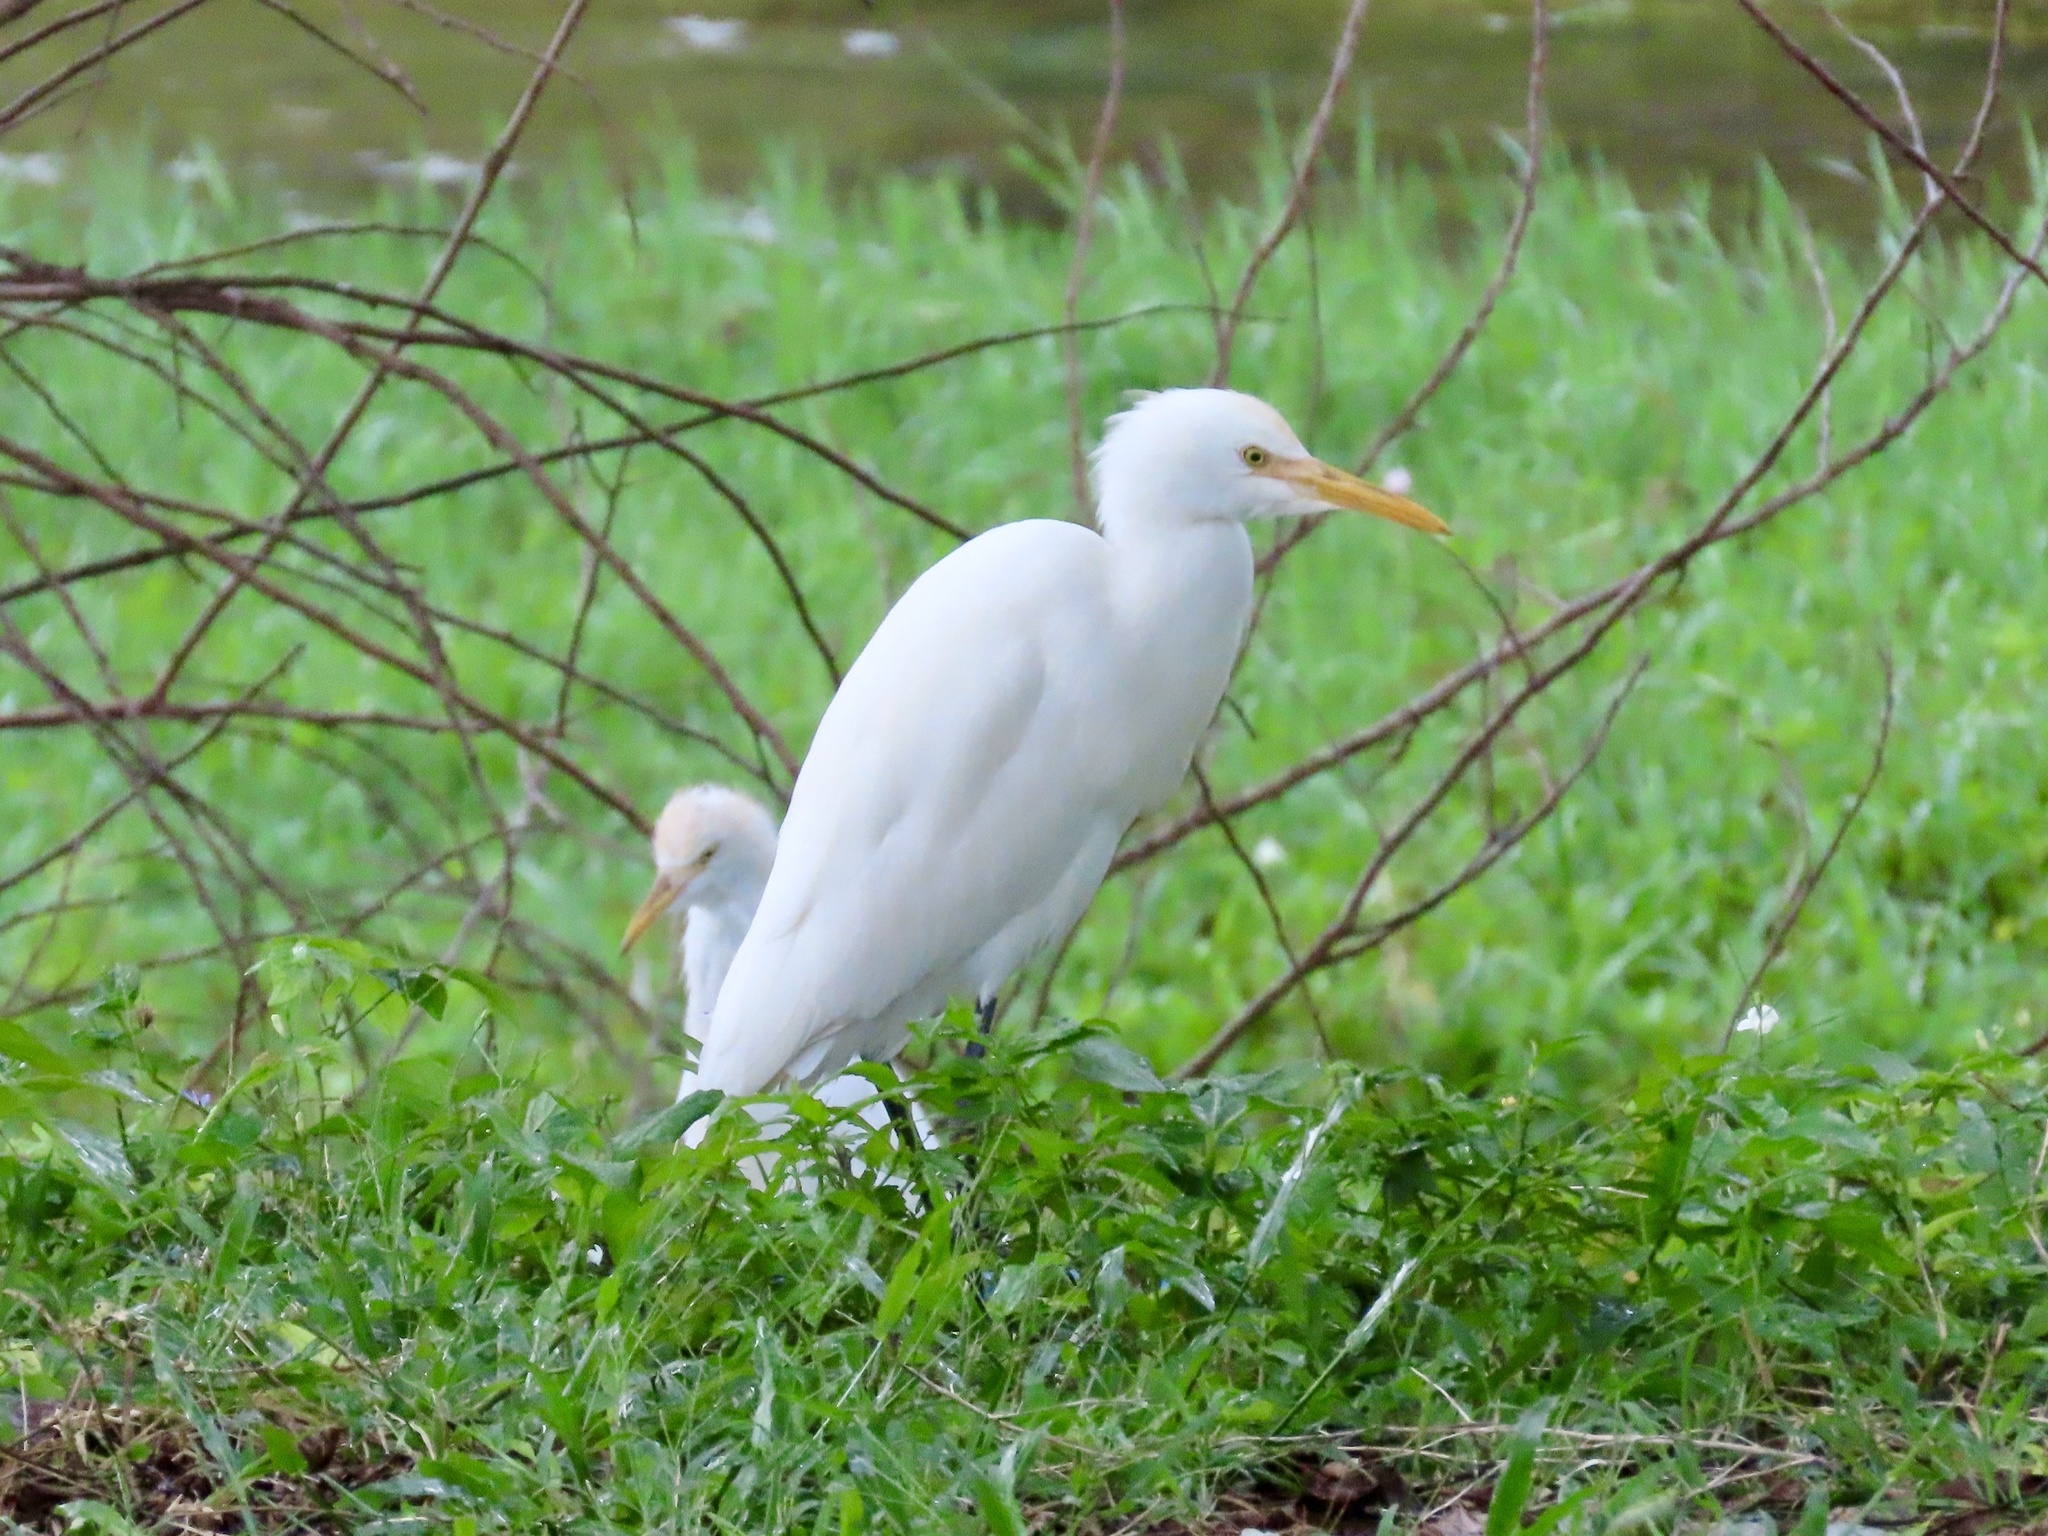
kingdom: Animalia
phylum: Chordata
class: Aves
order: Pelecaniformes
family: Ardeidae
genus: Bubulcus
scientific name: Bubulcus coromandus
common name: Eastern cattle egret
